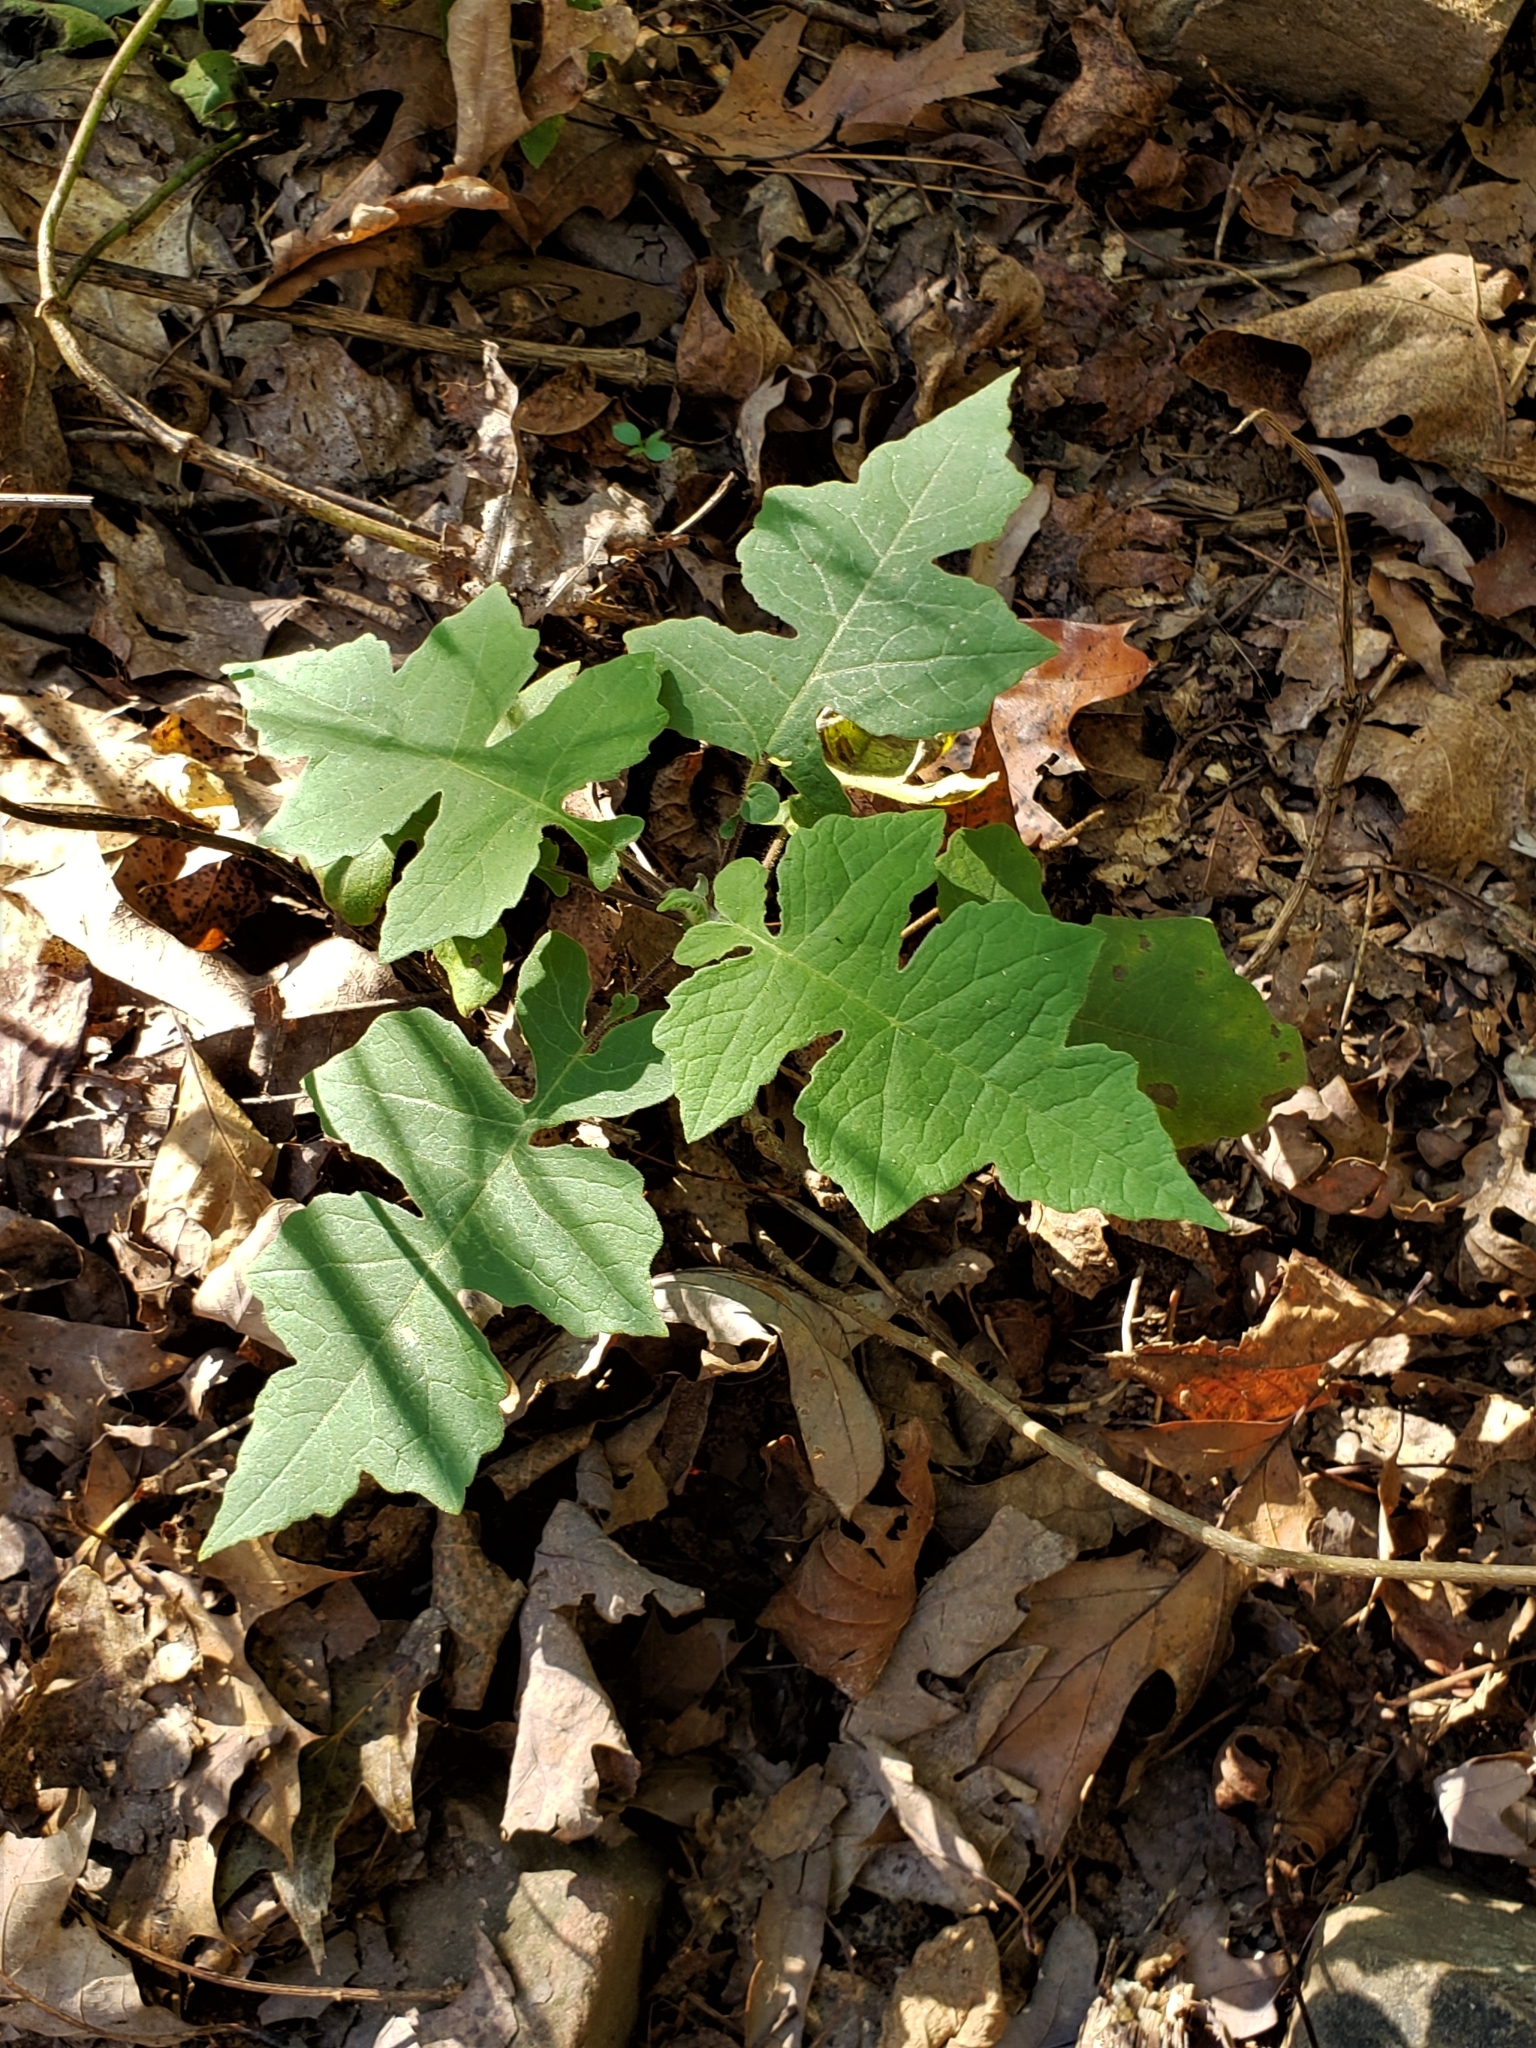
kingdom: Plantae
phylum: Tracheophyta
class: Magnoliopsida
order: Asterales
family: Asteraceae
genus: Polymnia
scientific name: Polymnia canadensis
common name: Pale-flowered leafcup
